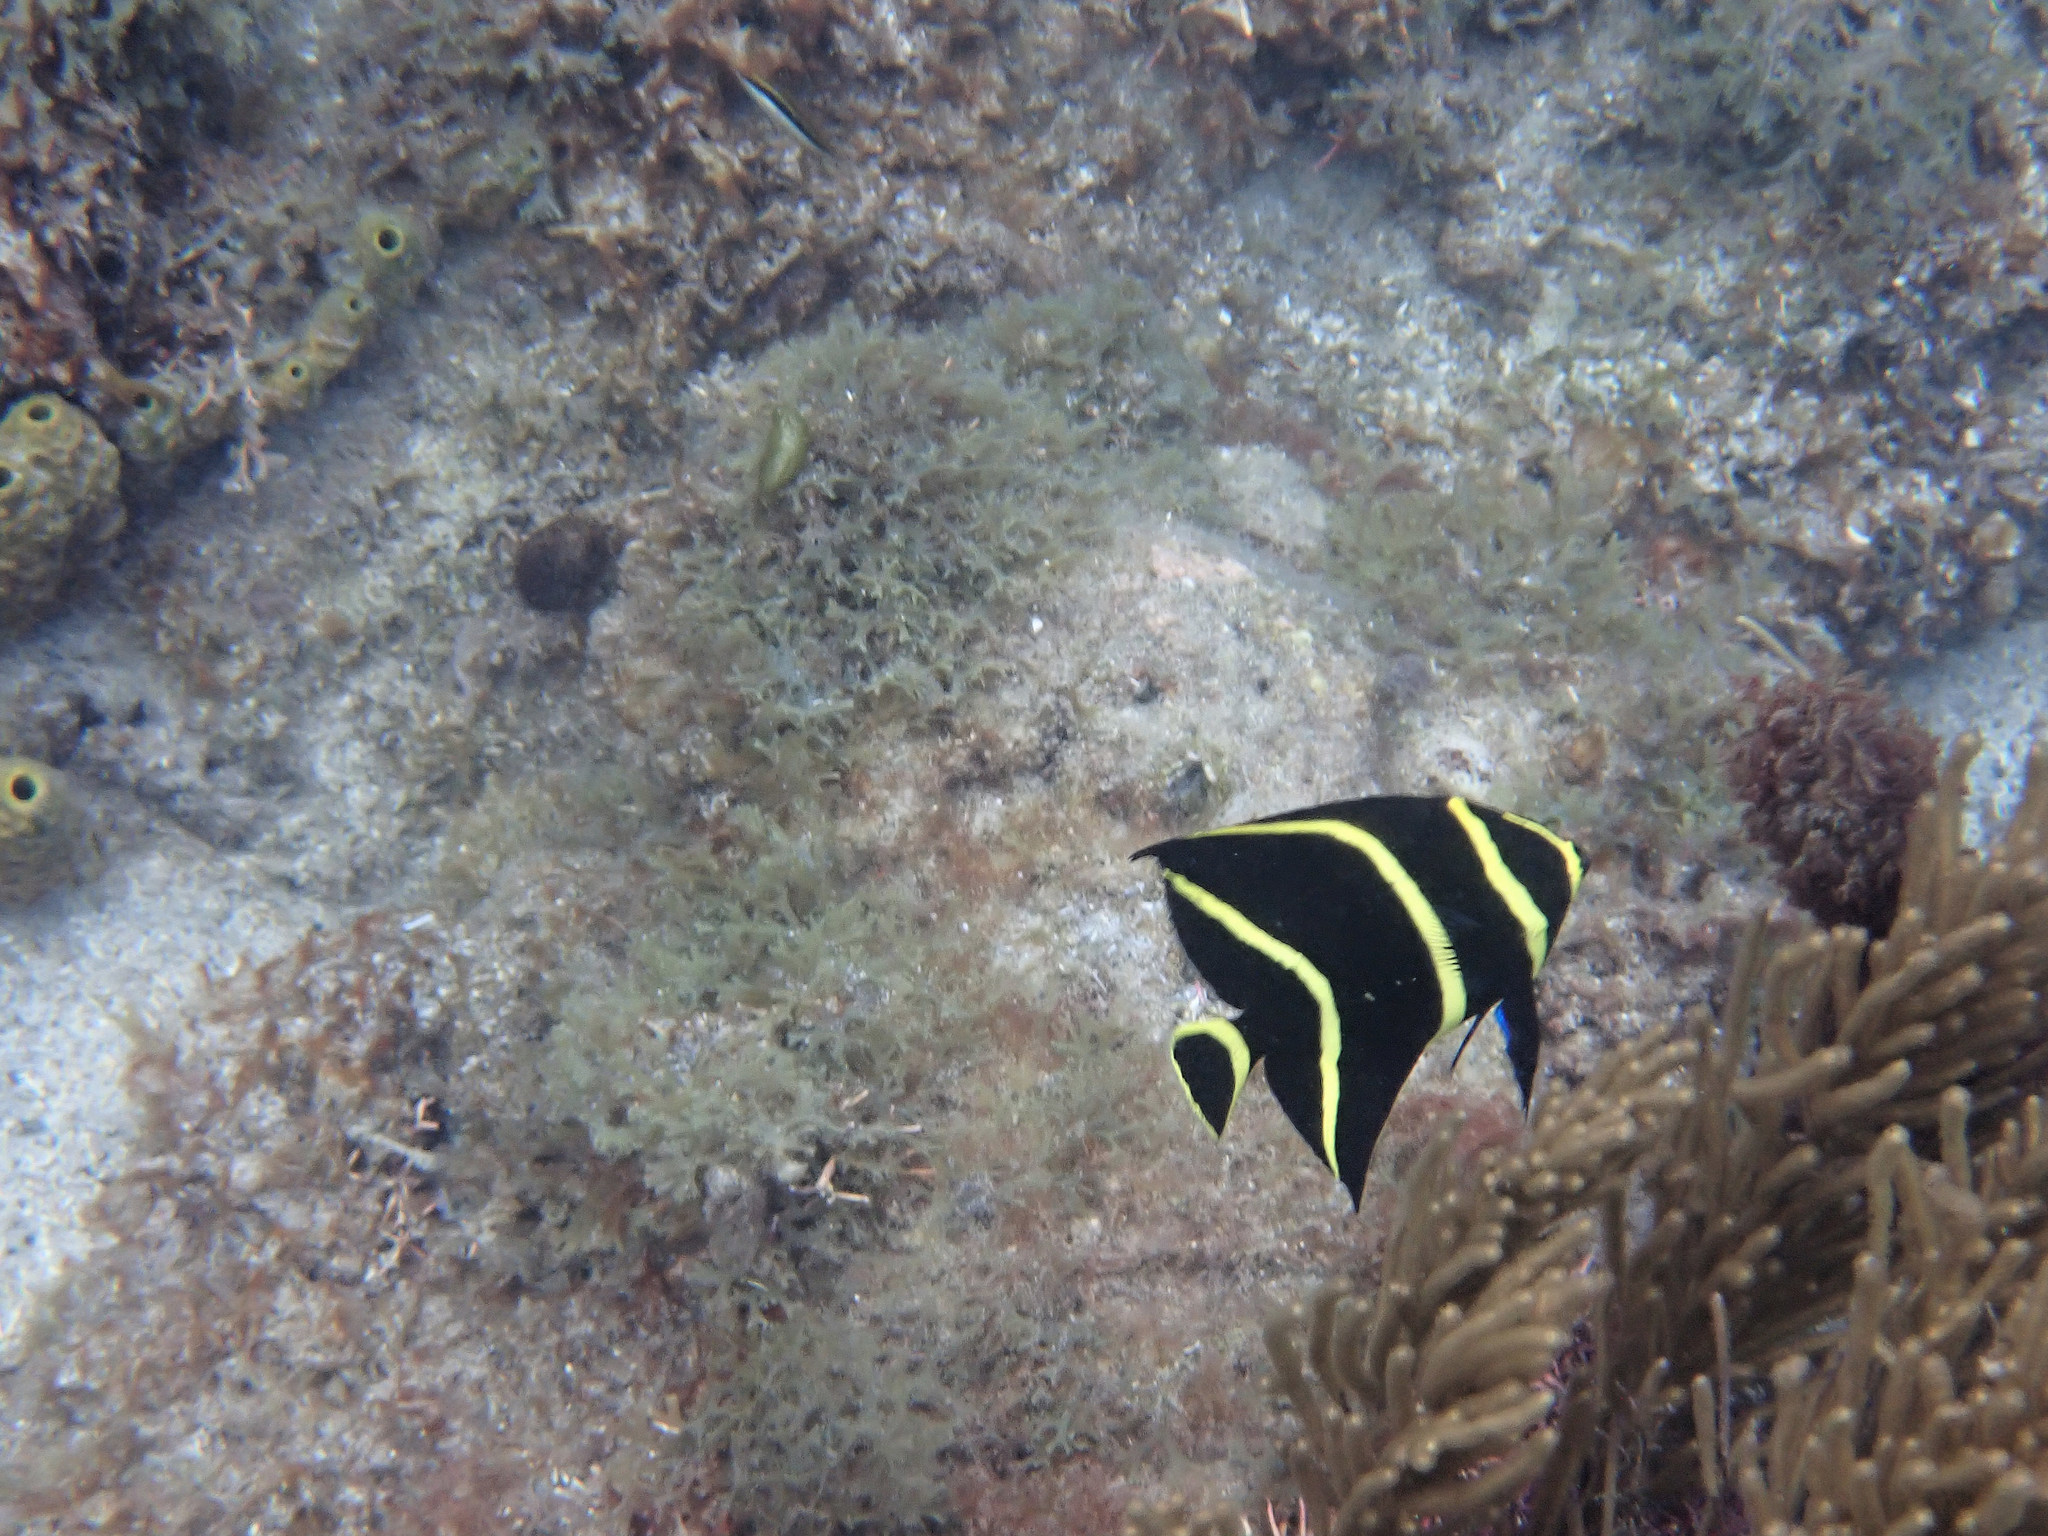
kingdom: Animalia
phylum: Chordata
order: Perciformes
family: Pomacanthidae
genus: Pomacanthus
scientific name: Pomacanthus paru
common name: French angelfish
